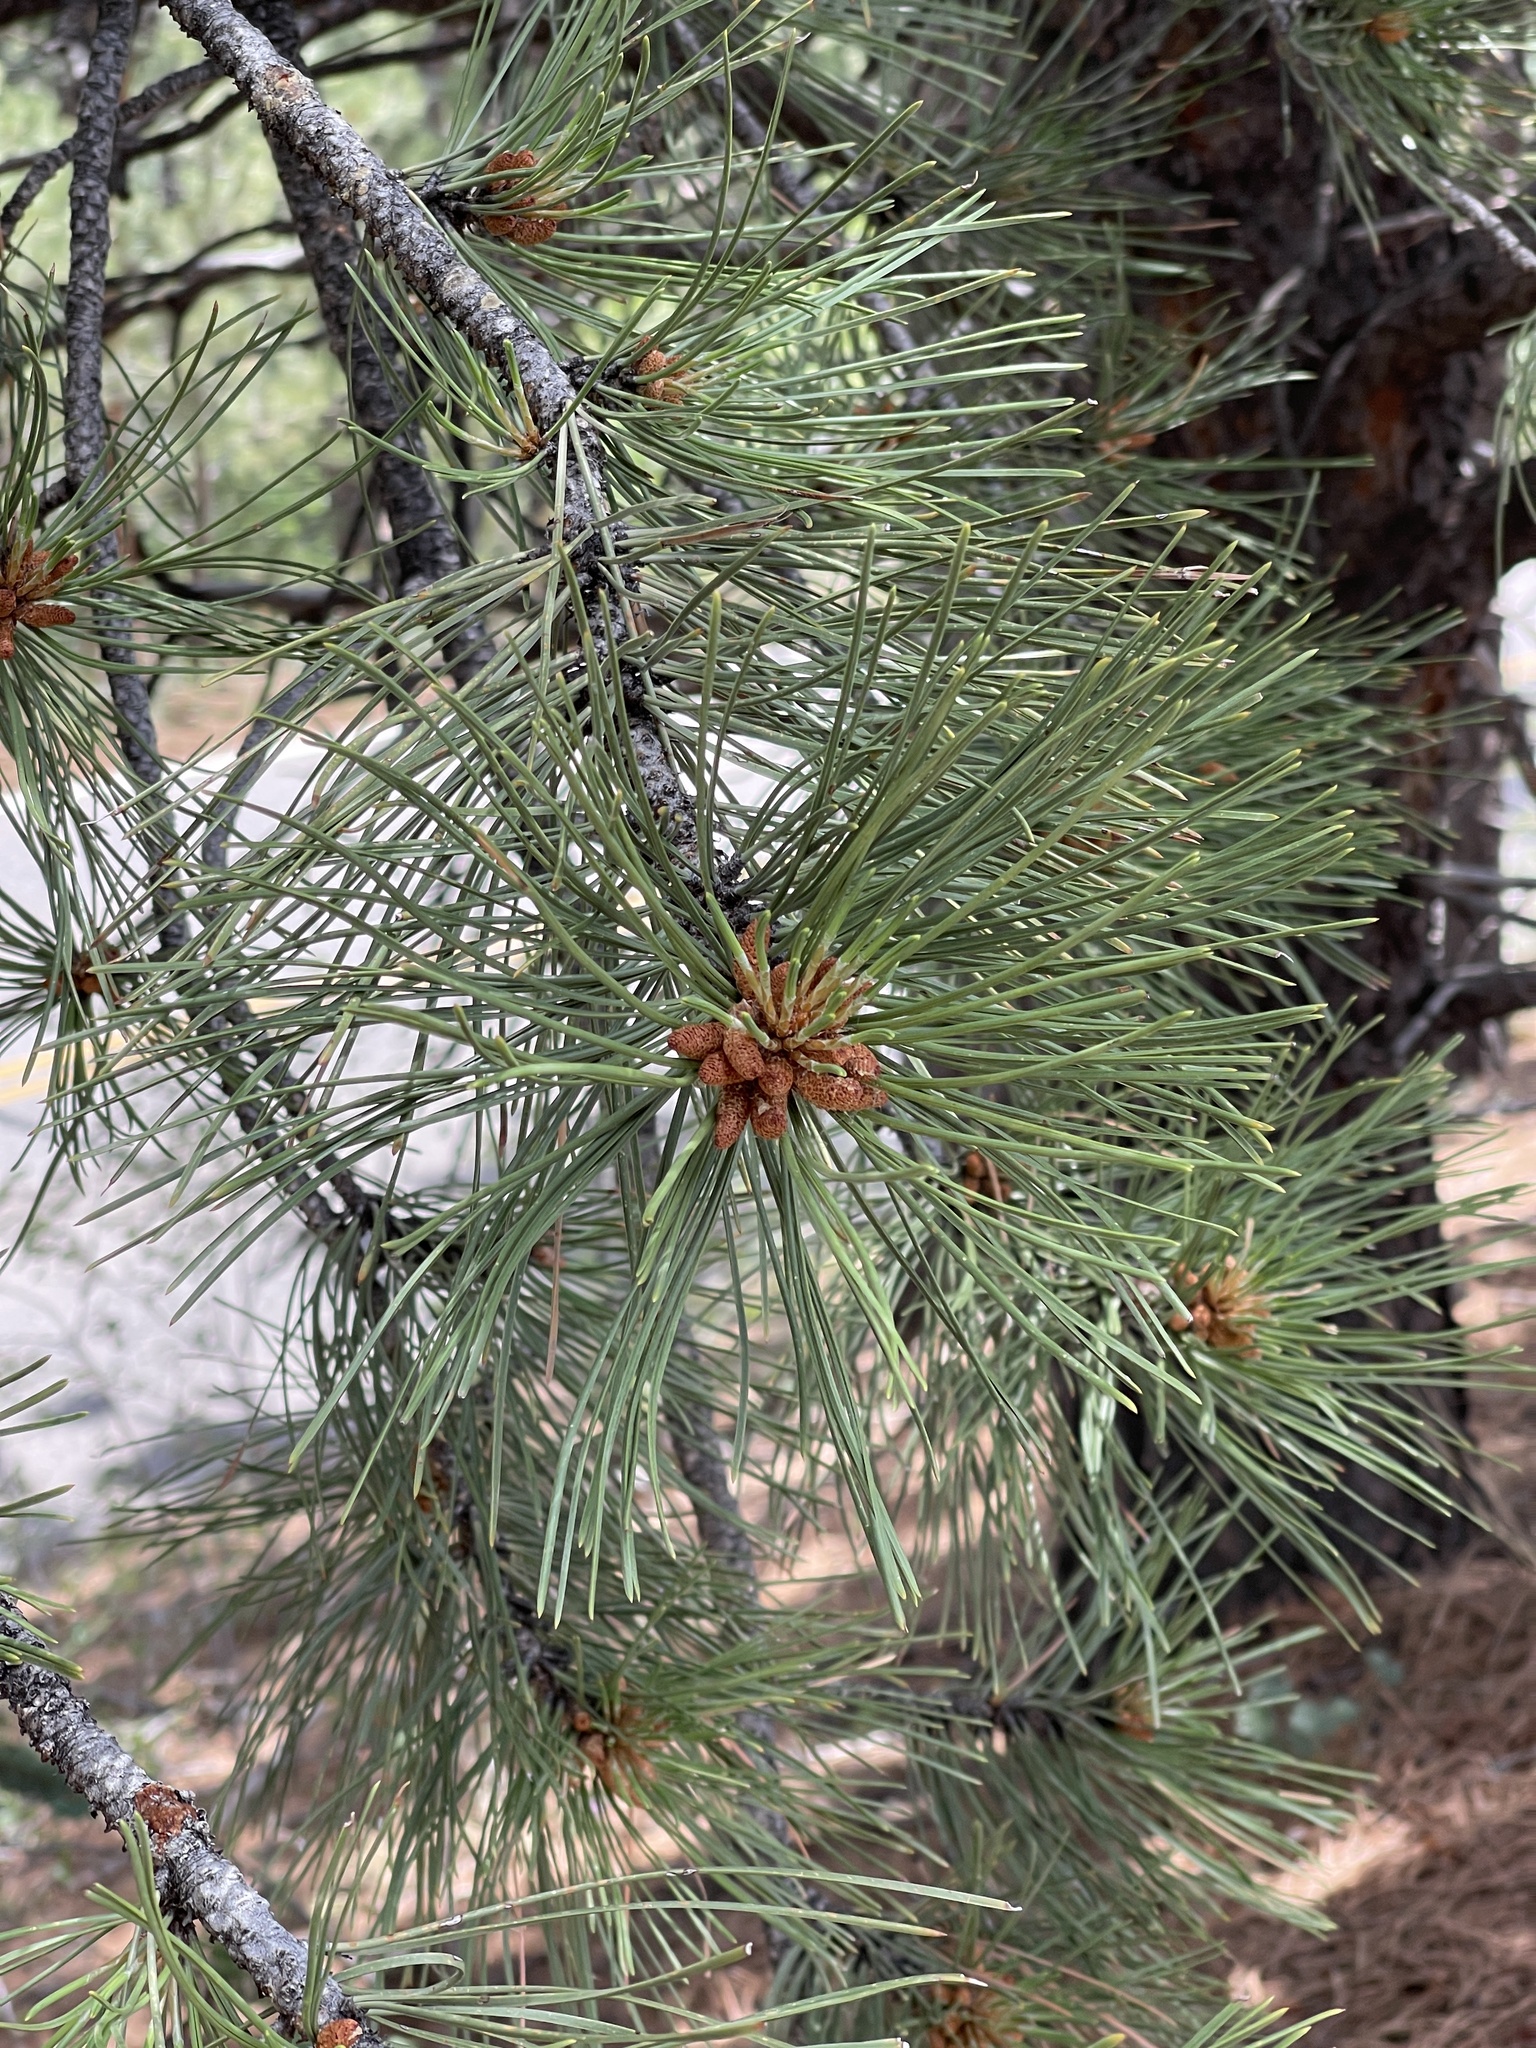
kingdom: Plantae
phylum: Tracheophyta
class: Pinopsida
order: Pinales
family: Pinaceae
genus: Pinus
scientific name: Pinus ponderosa
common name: Western yellow-pine
